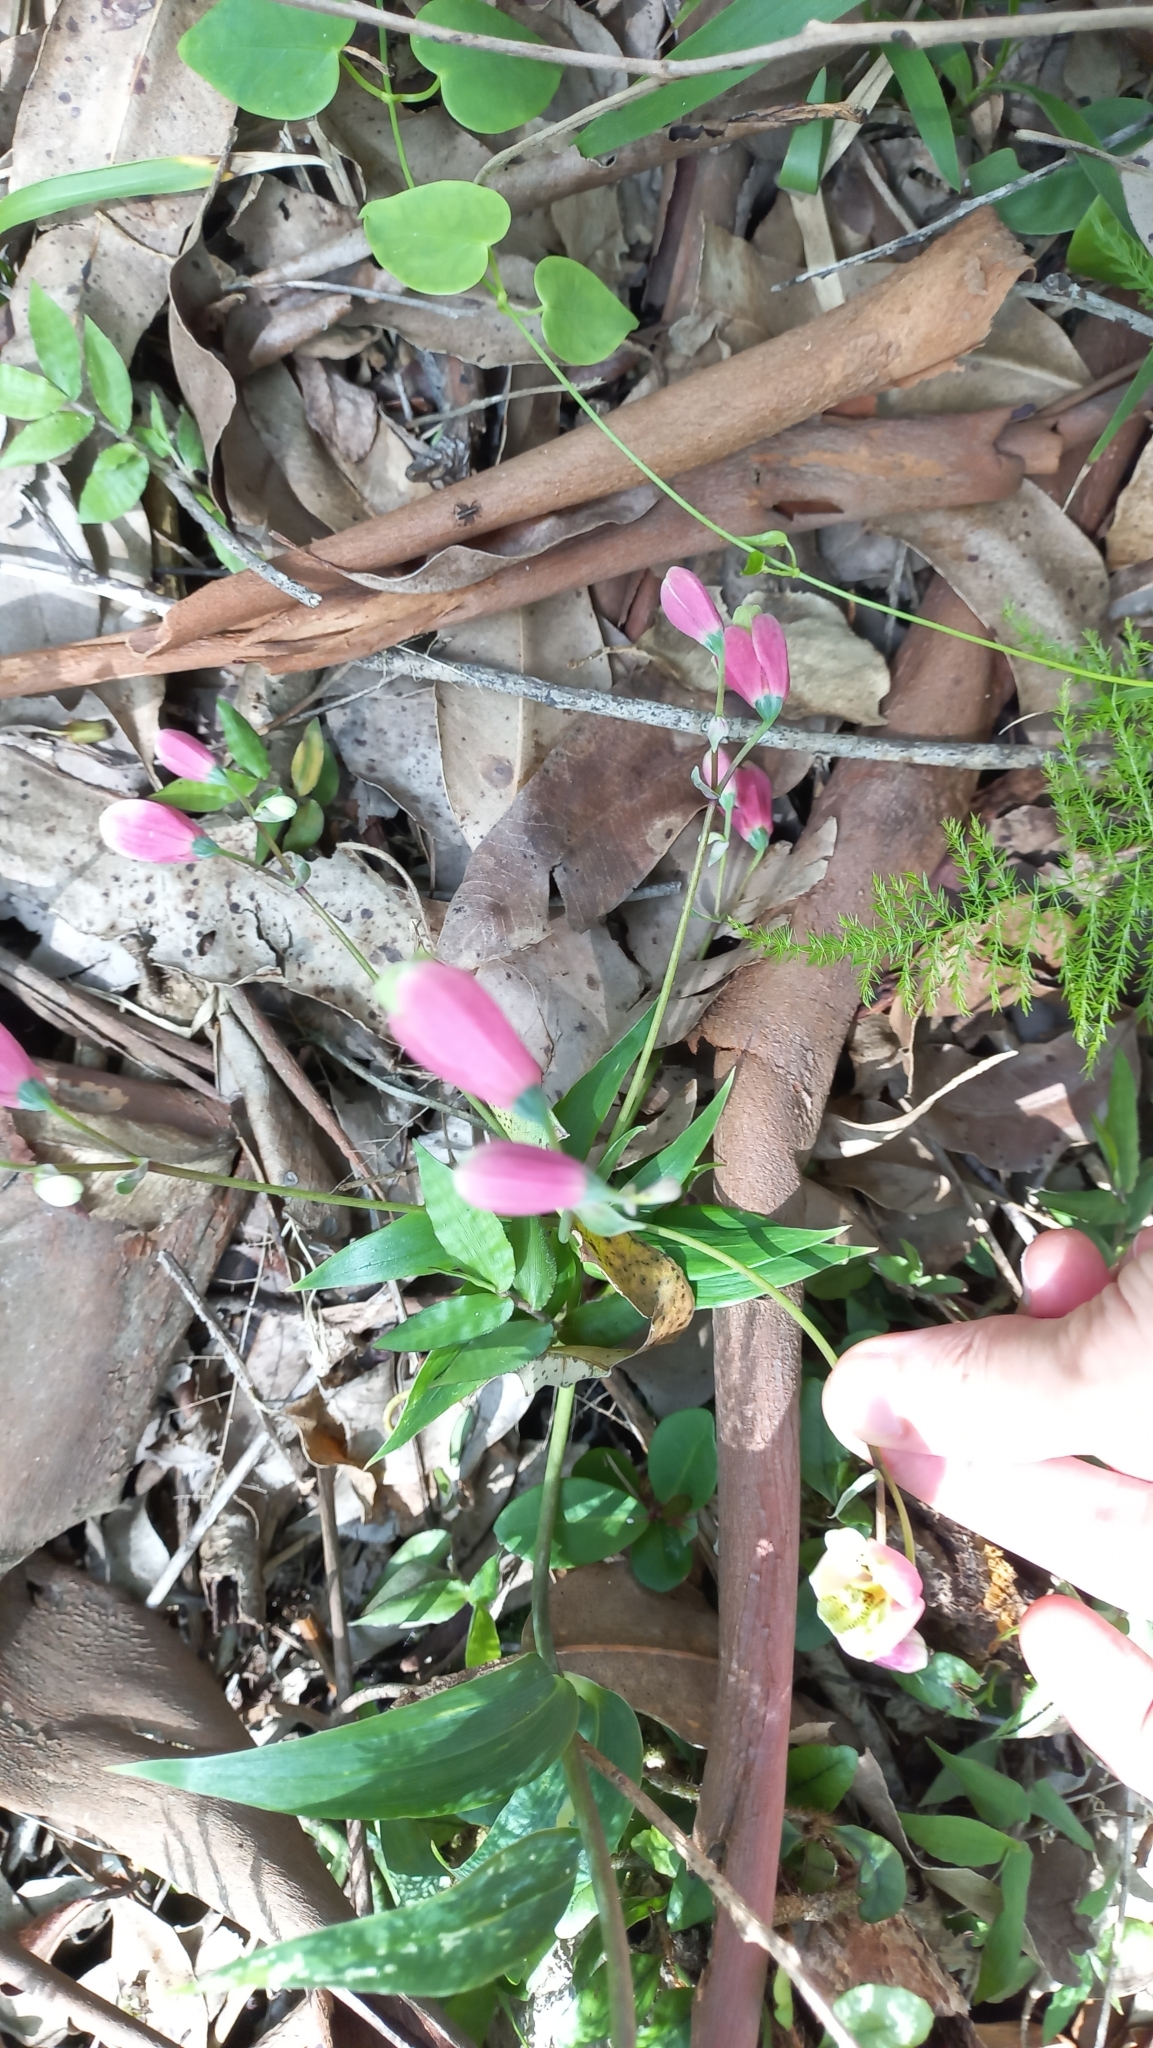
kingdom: Plantae
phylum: Tracheophyta
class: Liliopsida
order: Liliales
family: Alstroemeriaceae
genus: Bomarea
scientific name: Bomarea edulis
